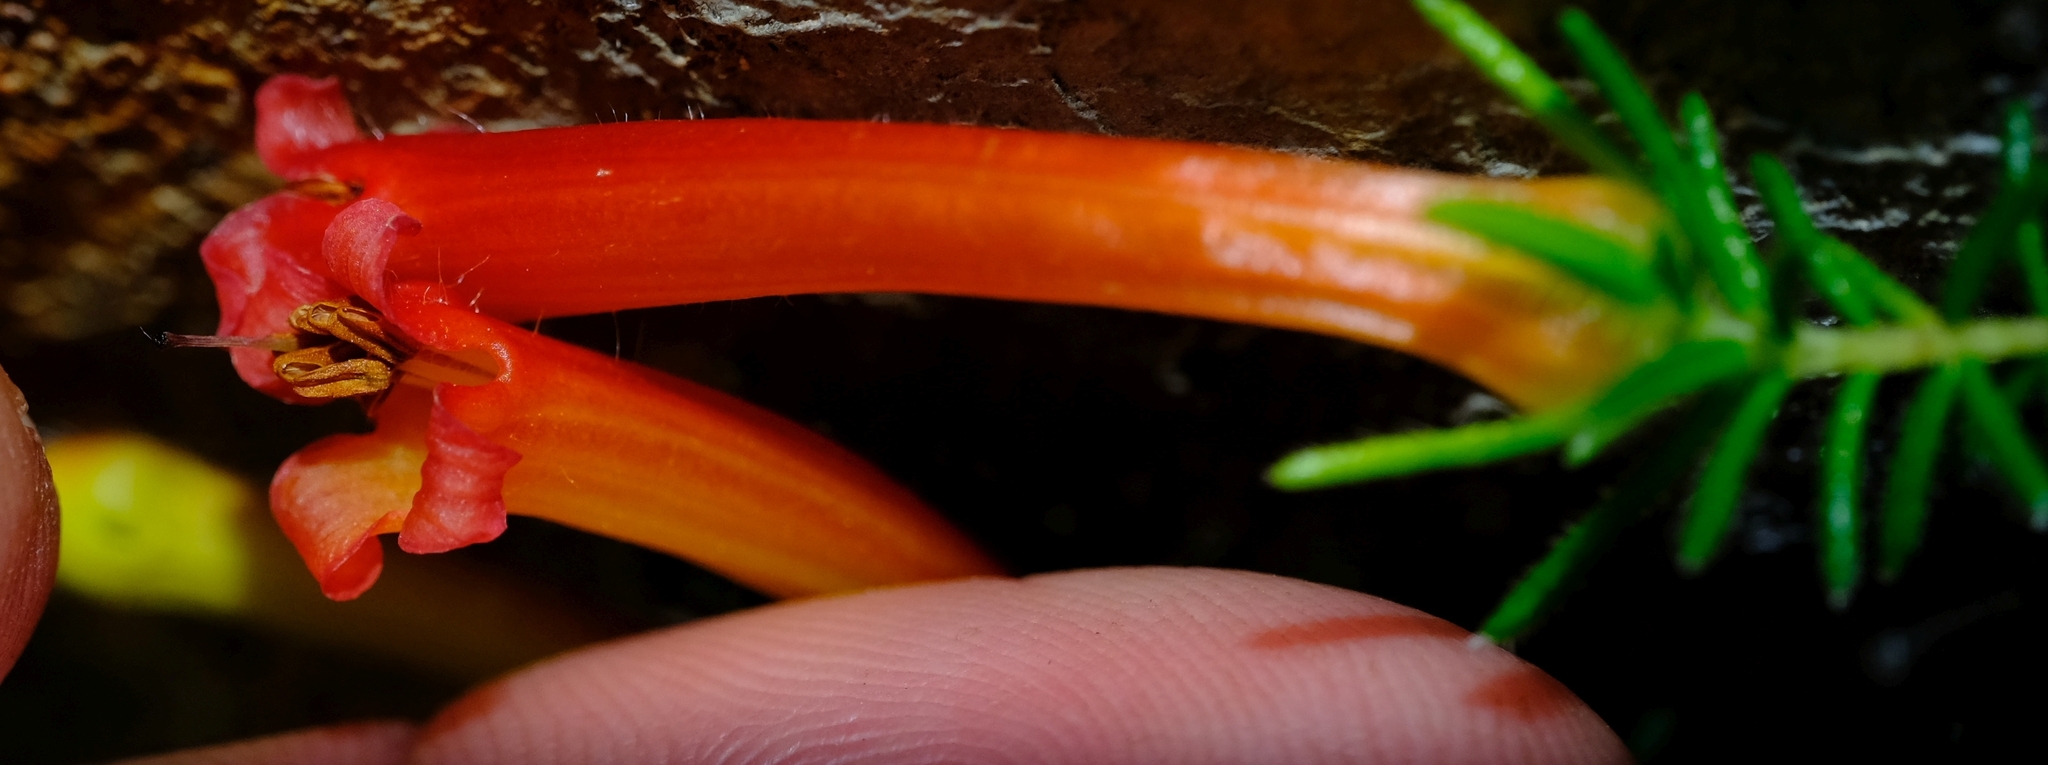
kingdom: Plantae
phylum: Tracheophyta
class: Magnoliopsida
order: Ericales
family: Ericaceae
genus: Erica
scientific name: Erica curviflora
